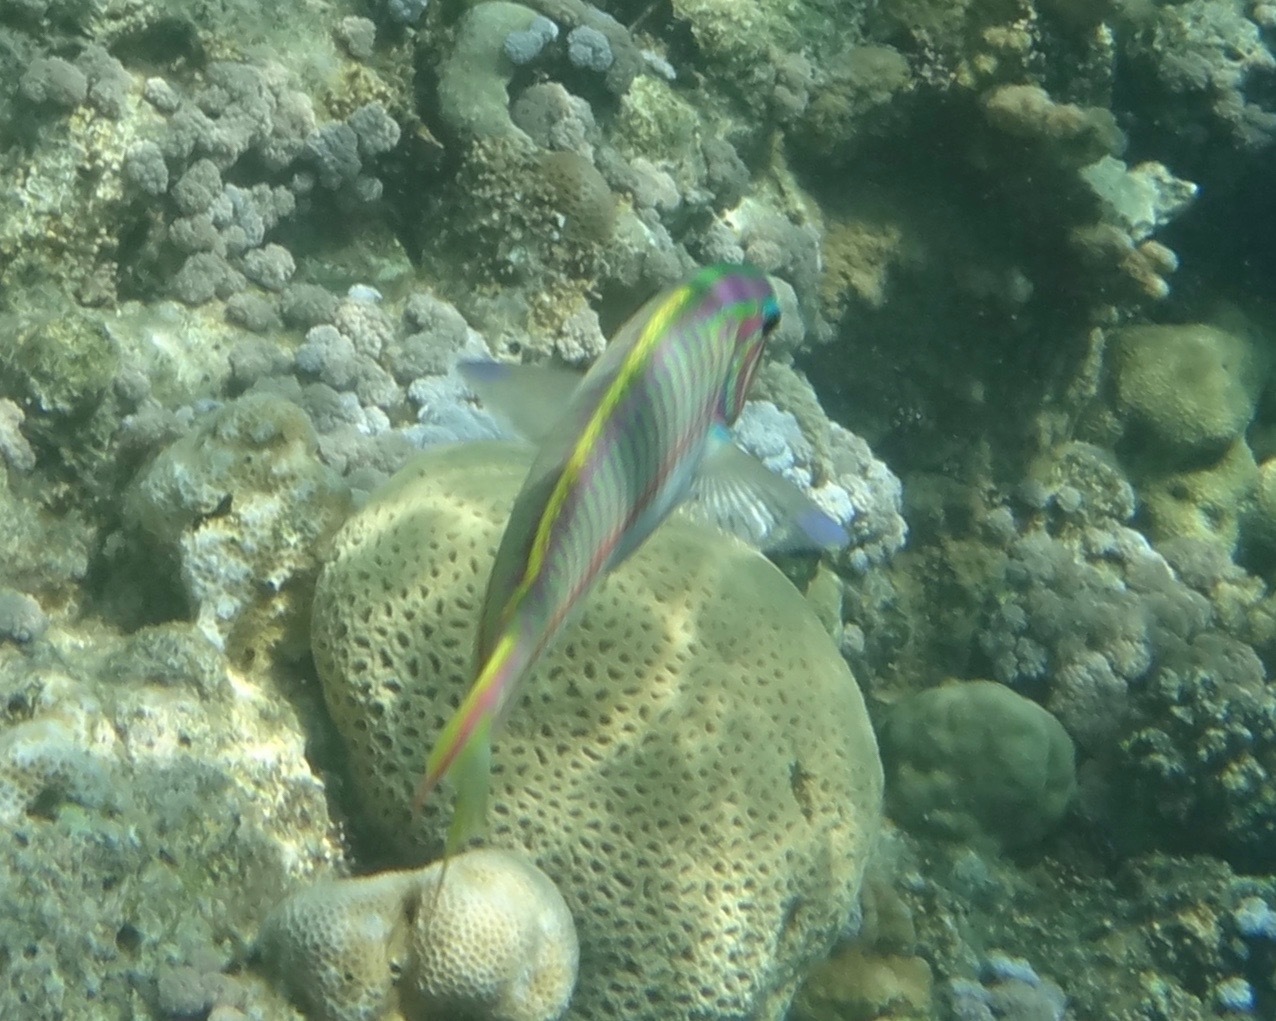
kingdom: Animalia
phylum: Chordata
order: Perciformes
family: Labridae
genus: Thalassoma
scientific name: Thalassoma rueppellii
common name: Klunzinger's wrasse
